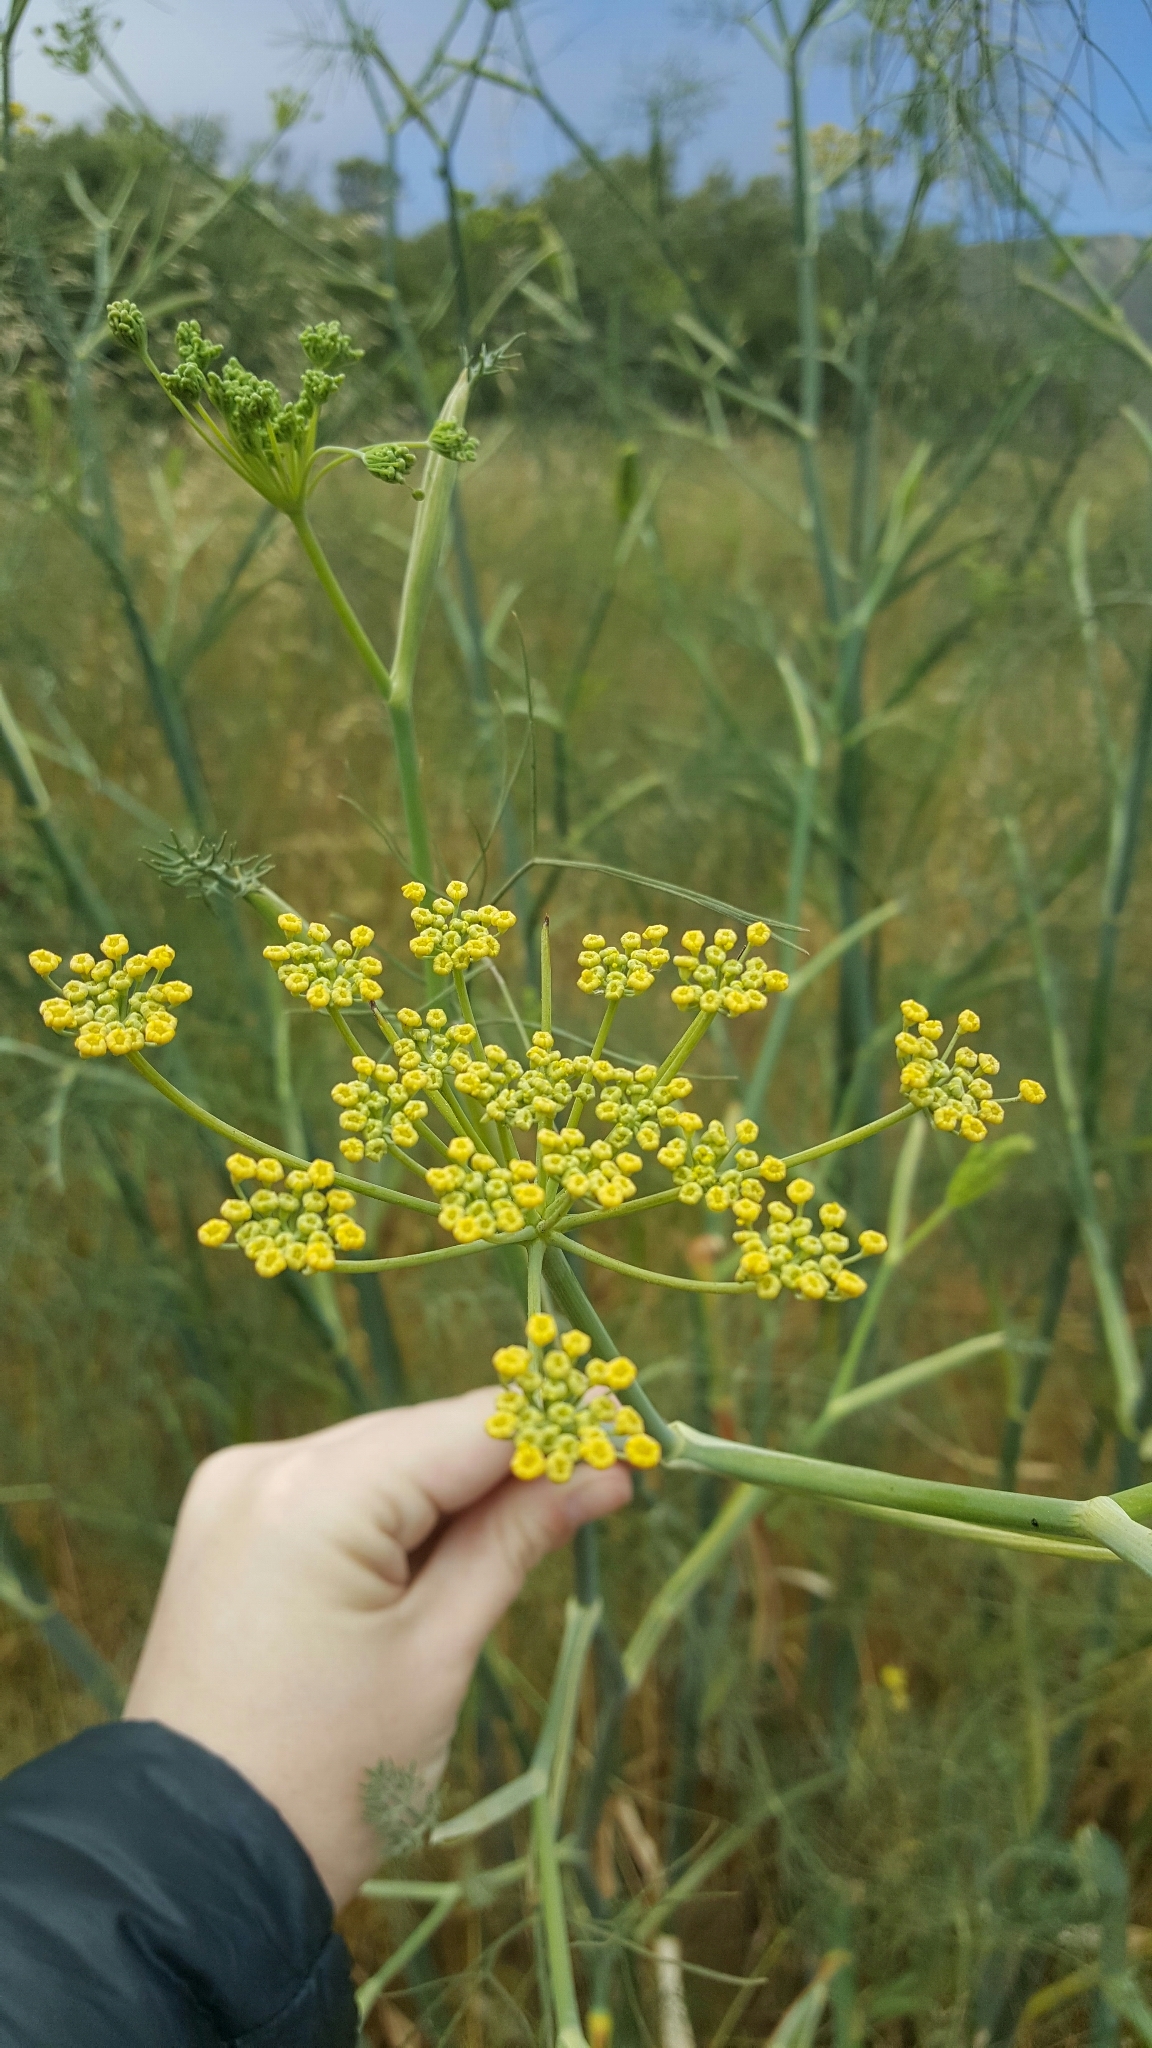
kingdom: Plantae
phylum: Tracheophyta
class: Magnoliopsida
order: Apiales
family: Apiaceae
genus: Foeniculum
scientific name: Foeniculum vulgare
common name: Fennel
